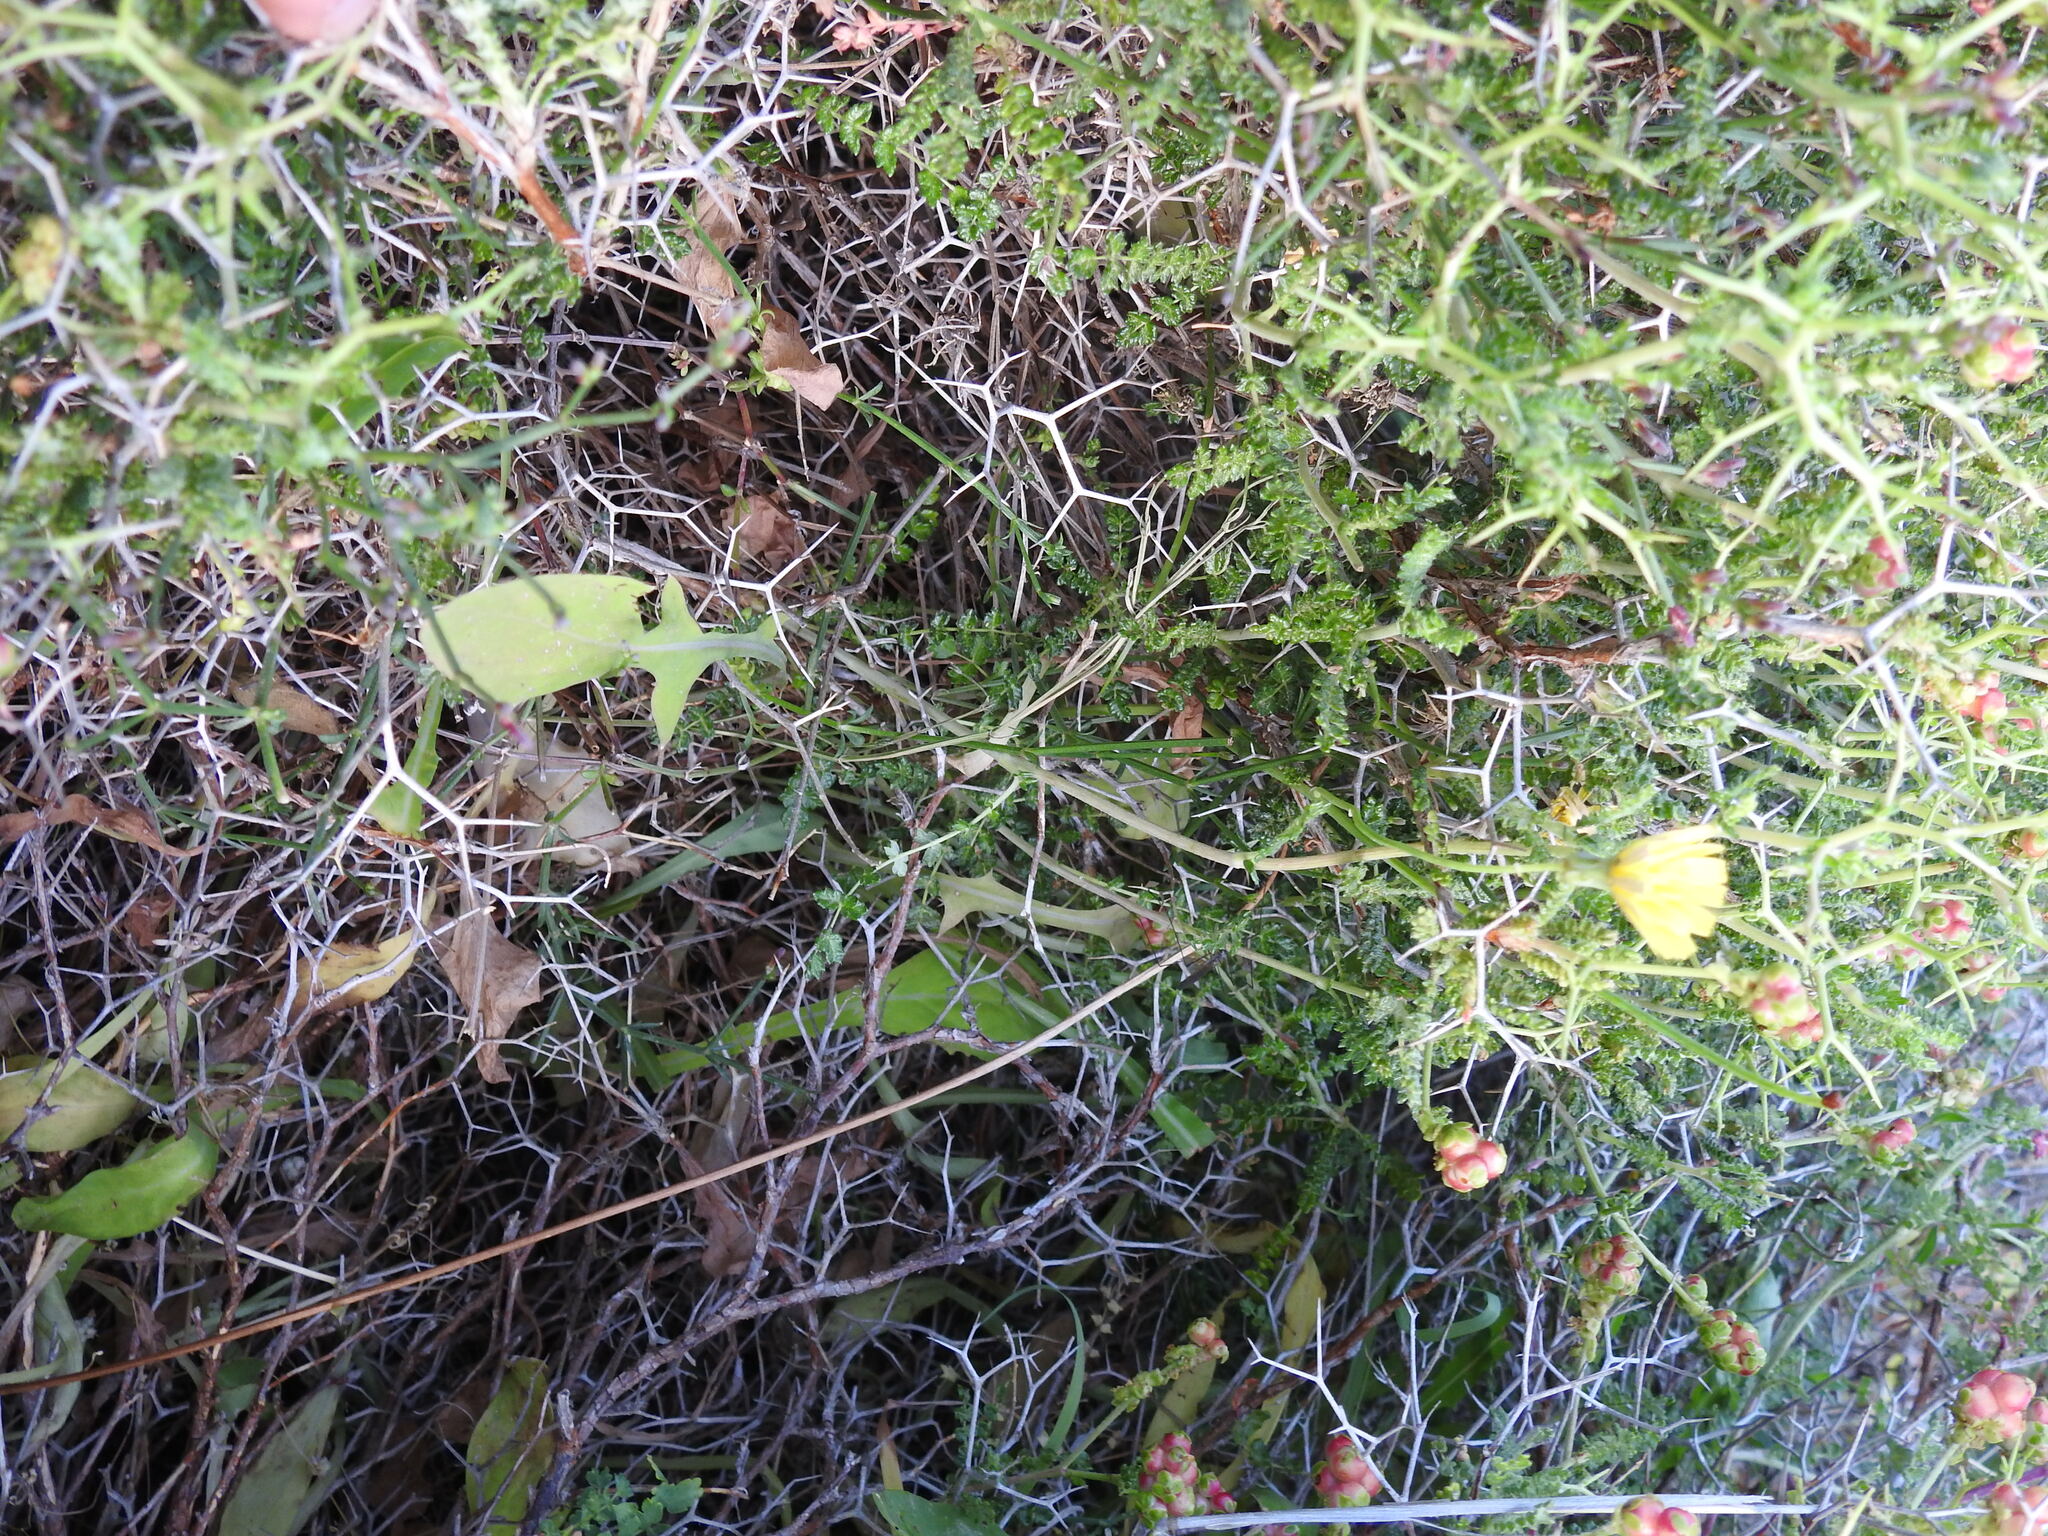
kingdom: Plantae
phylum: Tracheophyta
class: Magnoliopsida
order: Asterales
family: Asteraceae
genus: Aetheorhiza
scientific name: Aetheorhiza bulbosa
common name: Tuberous hawk's-beard
